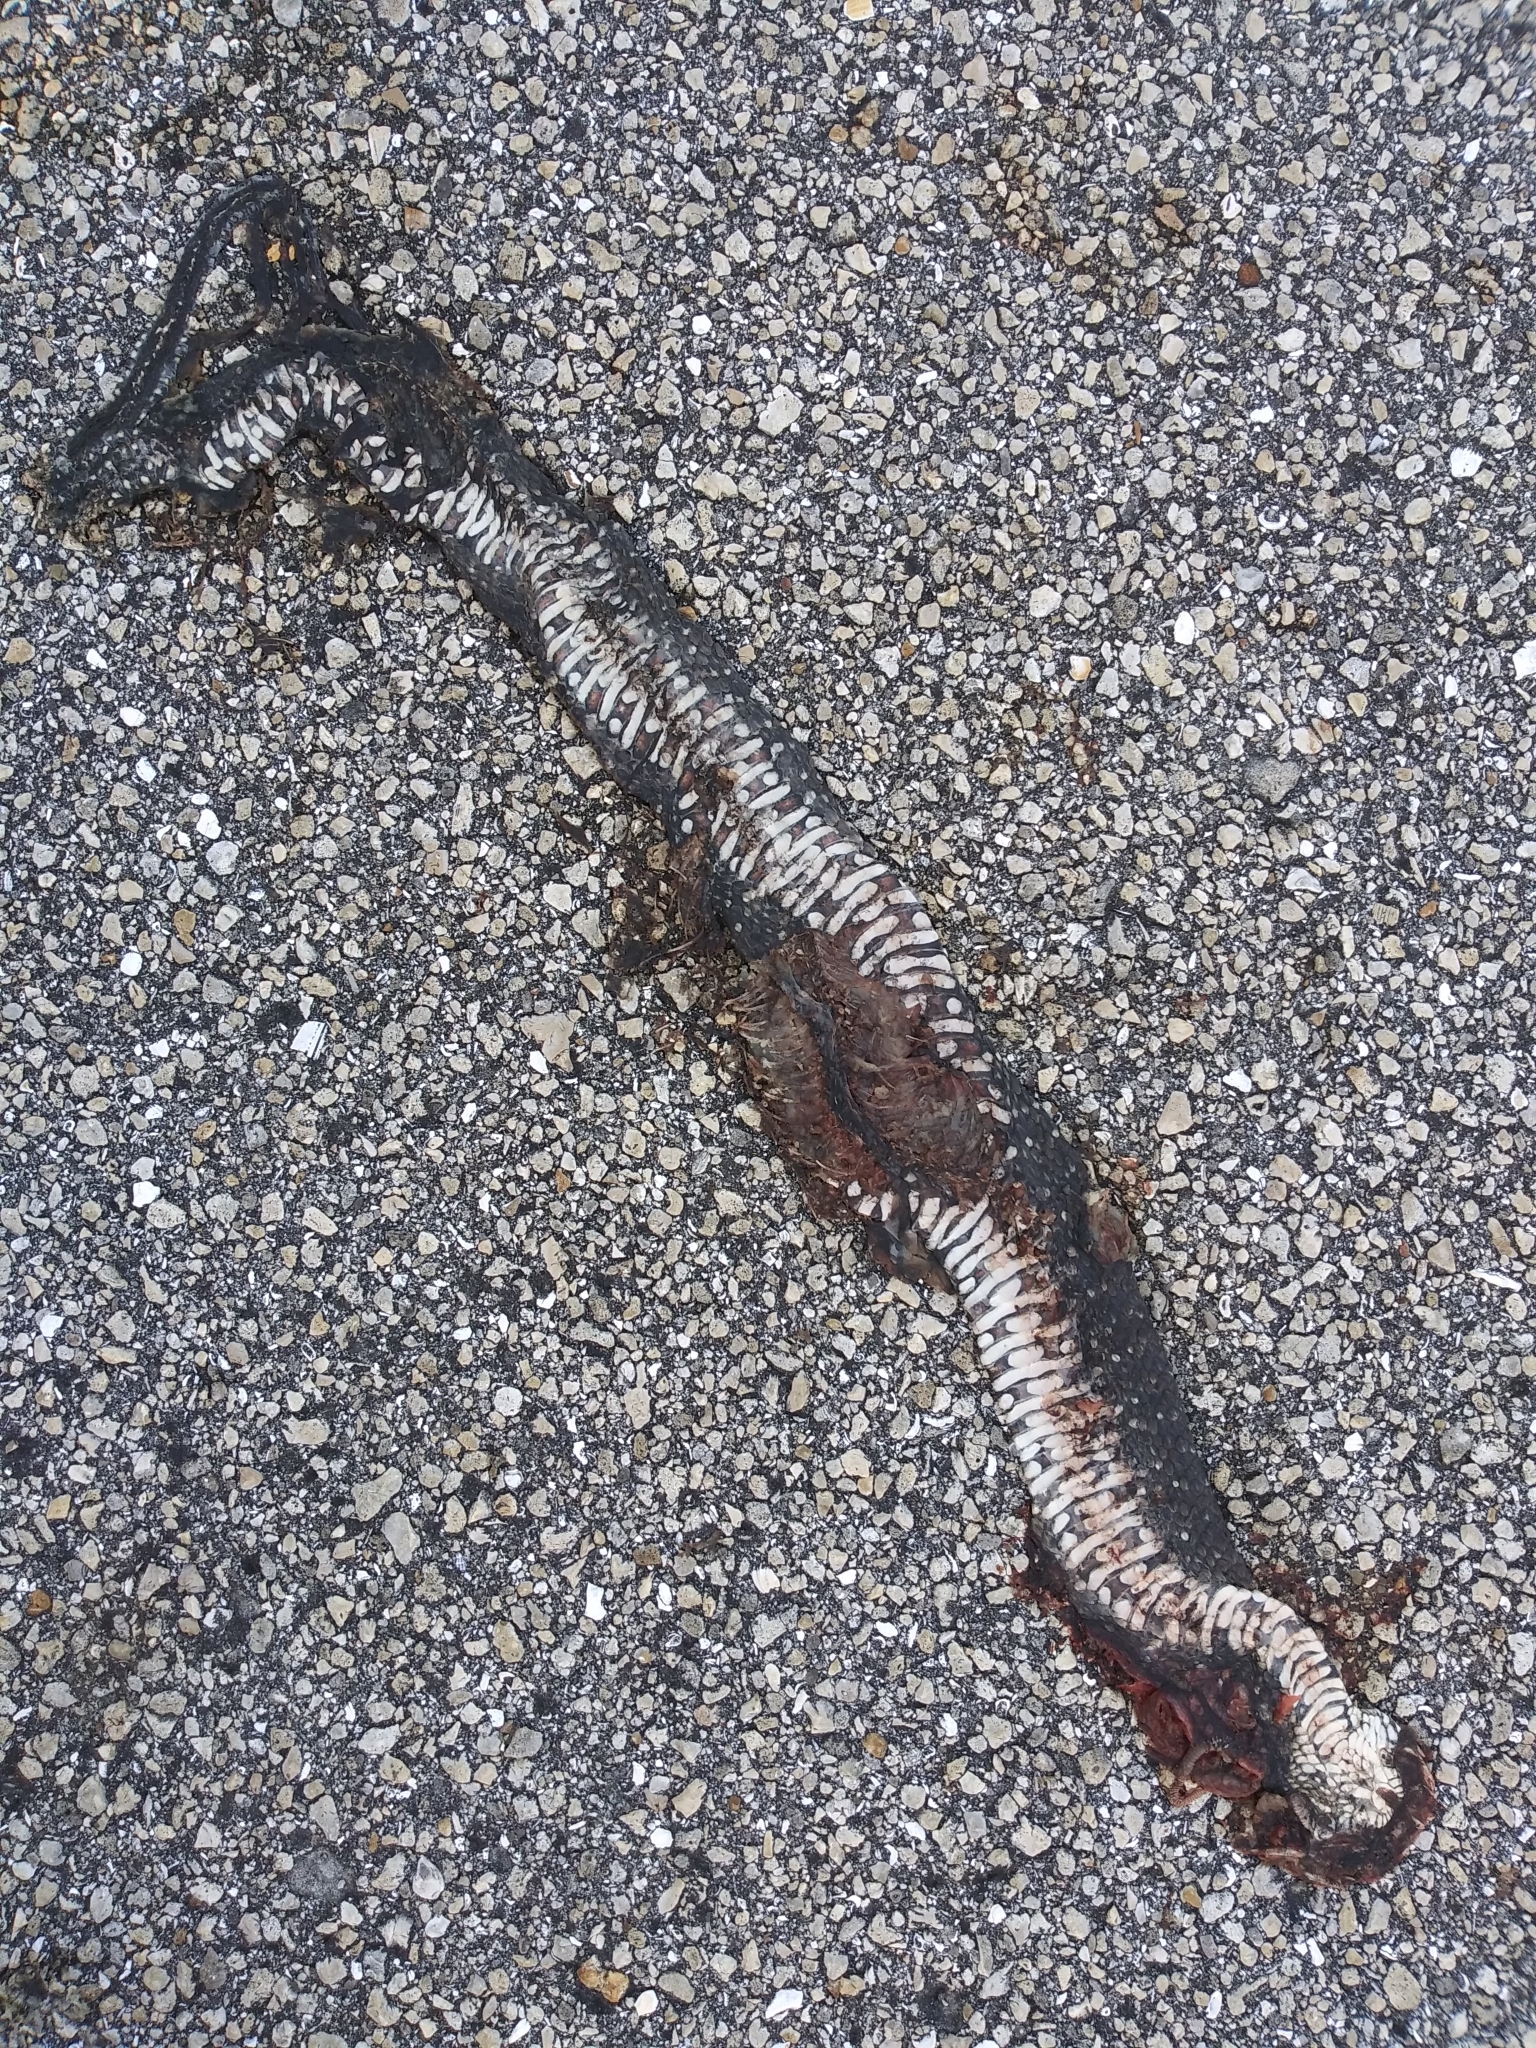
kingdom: Animalia
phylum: Chordata
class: Squamata
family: Colubridae
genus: Nerodia
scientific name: Nerodia fasciata
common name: Southern water snake
